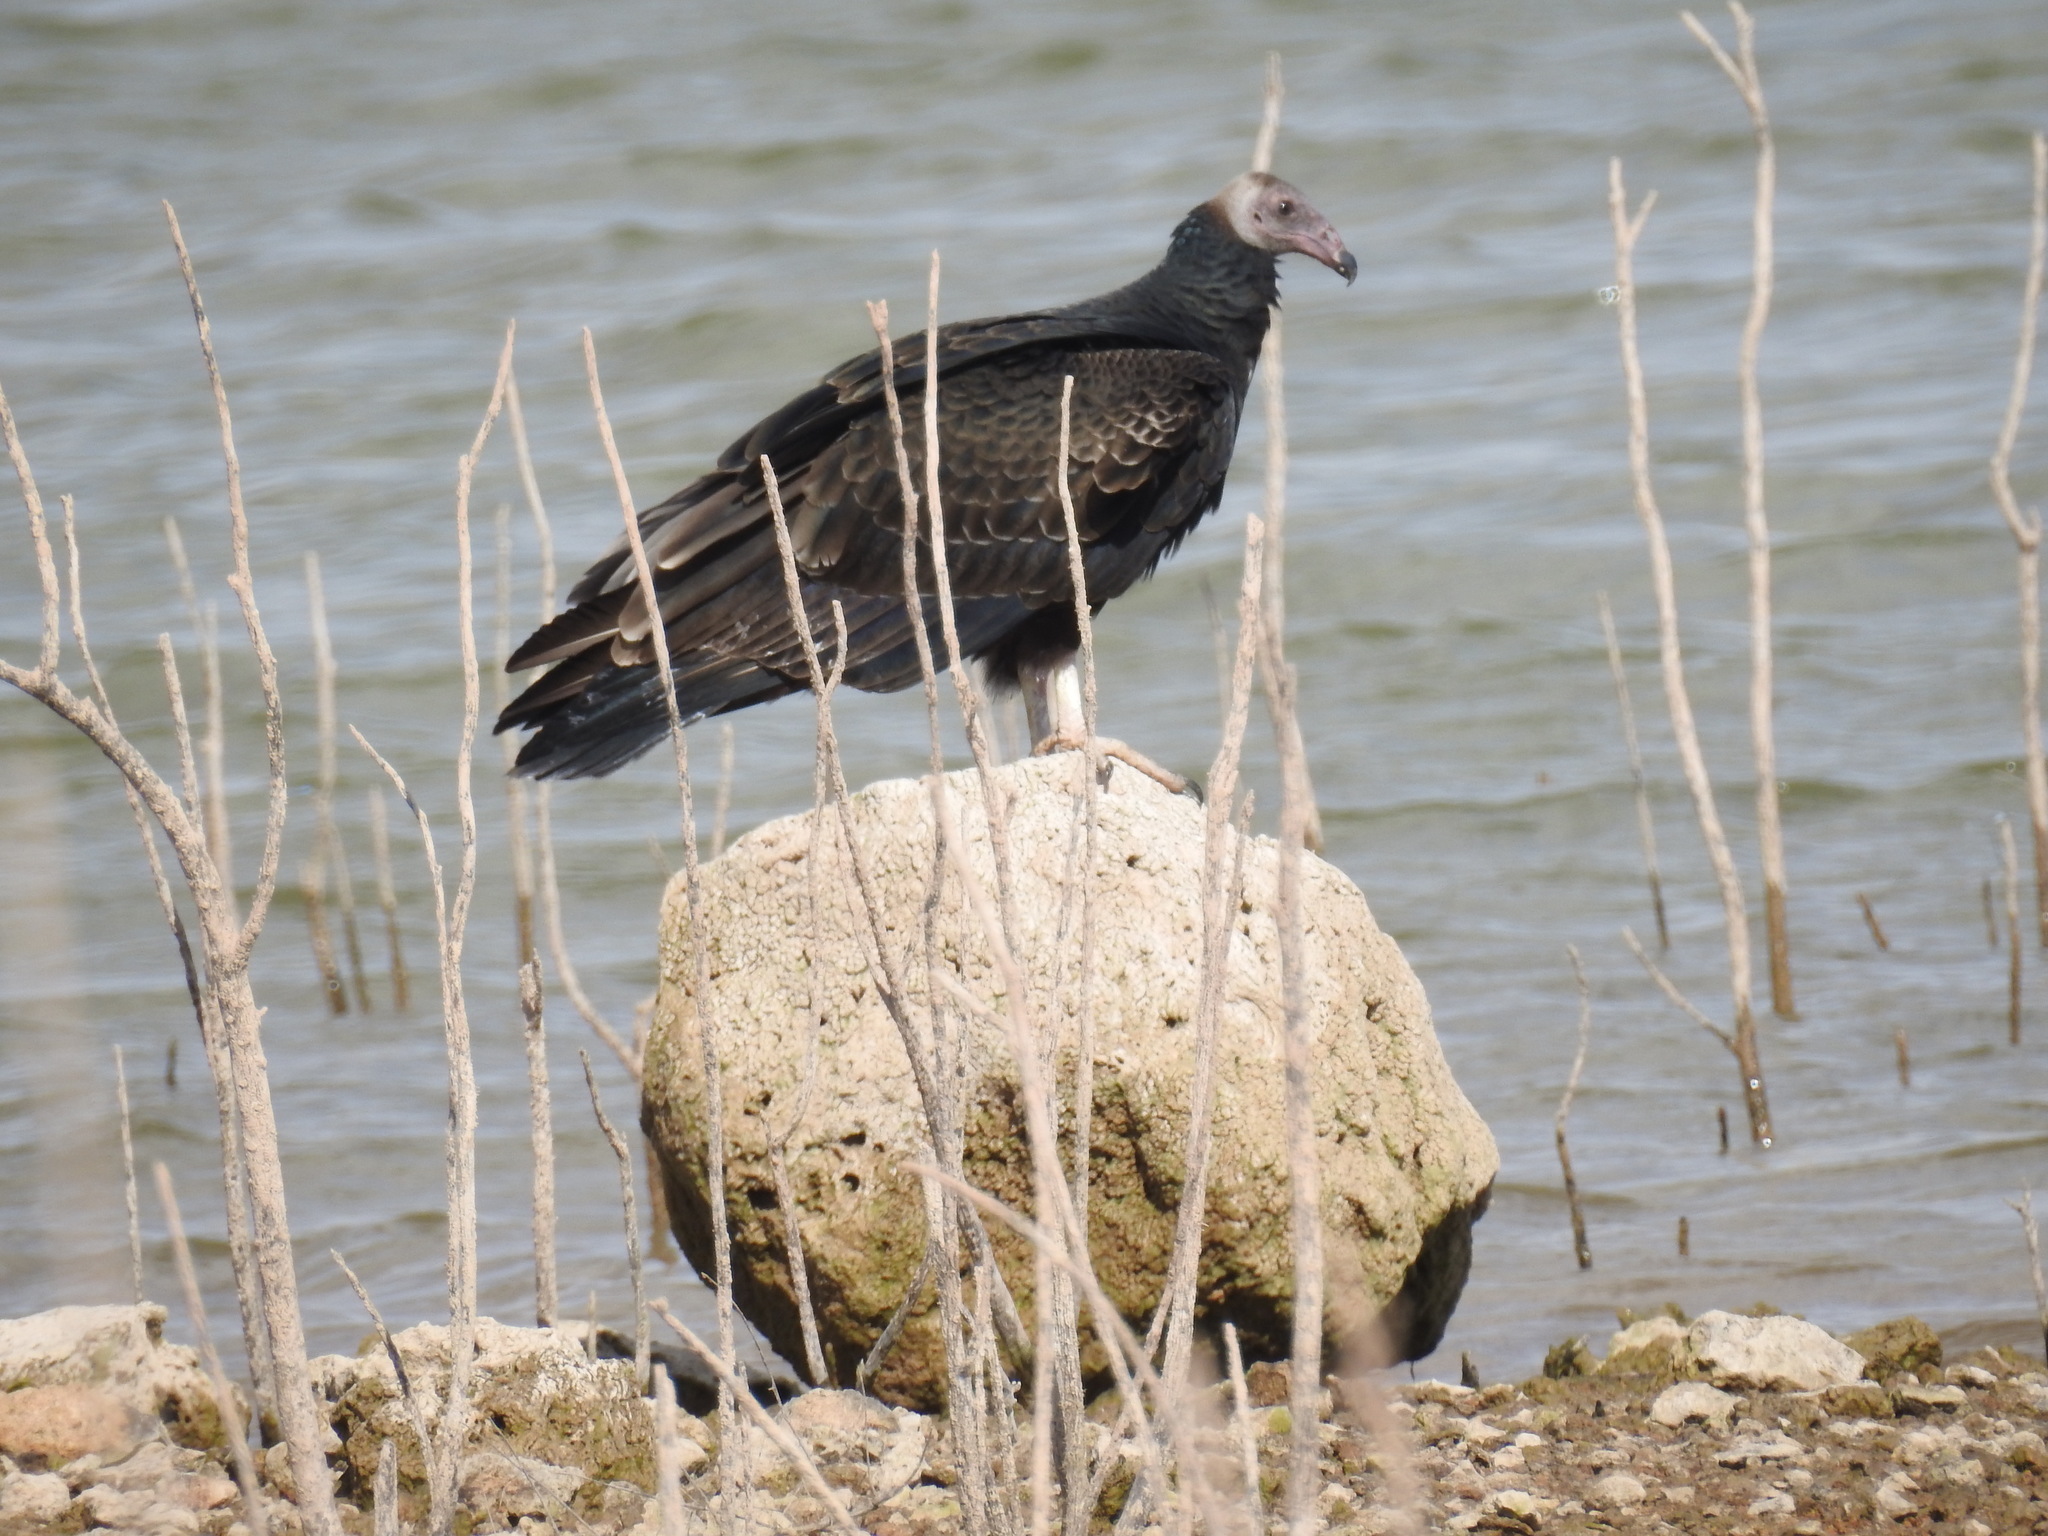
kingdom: Animalia
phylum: Chordata
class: Aves
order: Accipitriformes
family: Cathartidae
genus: Cathartes
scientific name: Cathartes aura
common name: Turkey vulture
